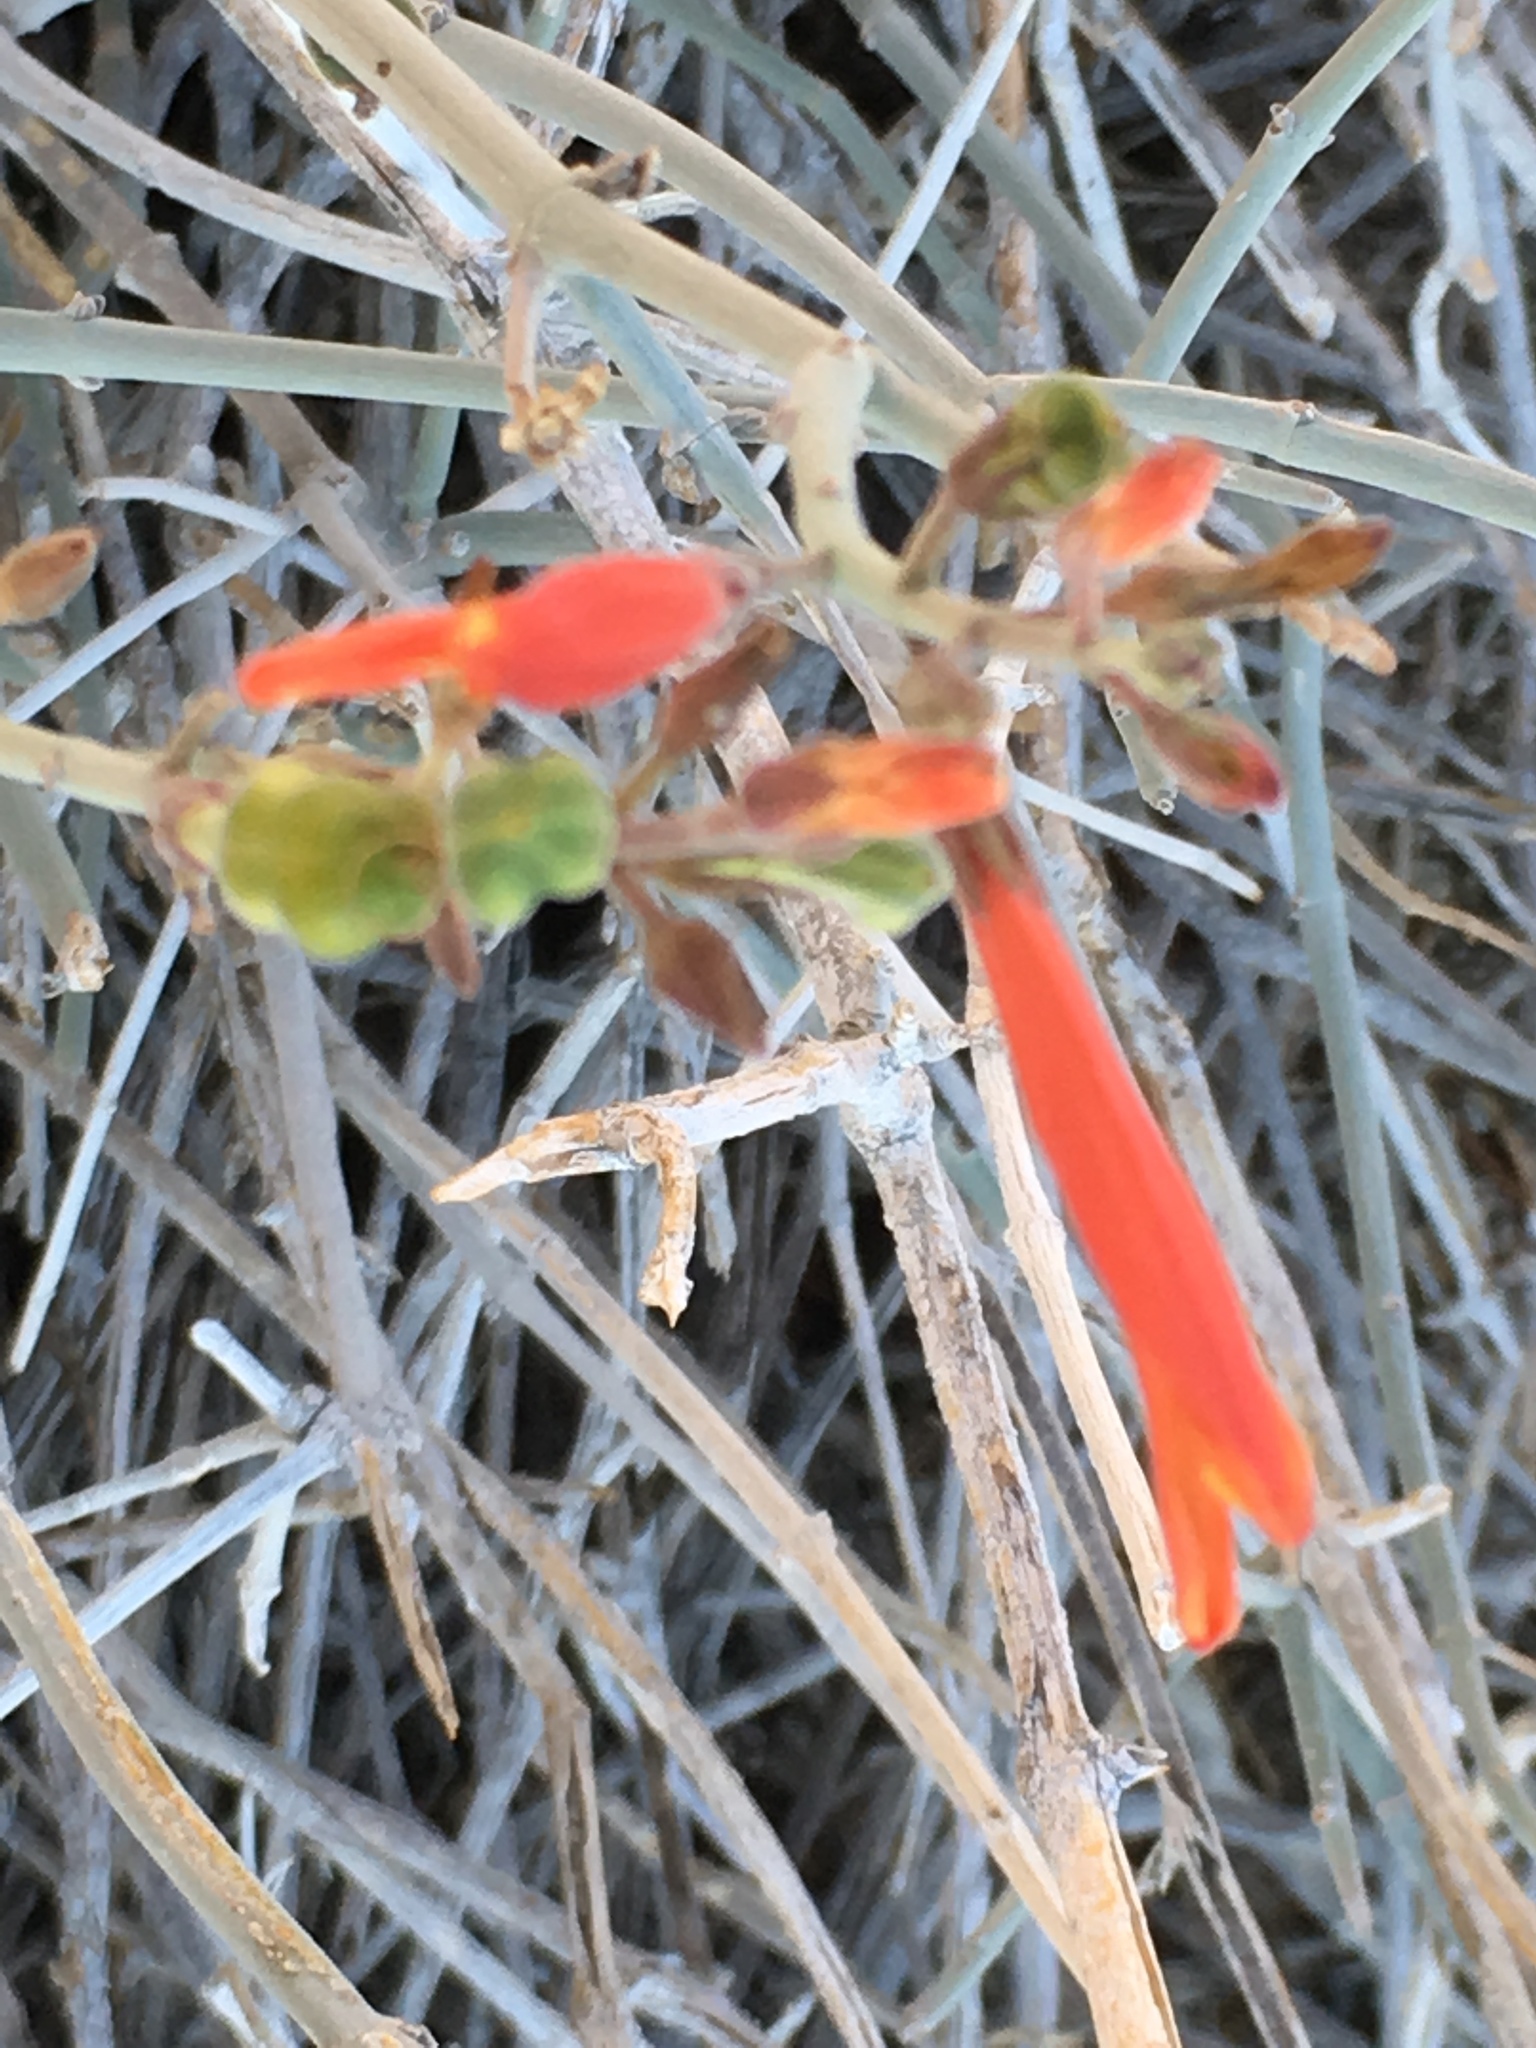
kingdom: Plantae
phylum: Tracheophyta
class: Magnoliopsida
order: Lamiales
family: Acanthaceae
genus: Justicia
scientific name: Justicia californica
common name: Chuparosa-honeysuckle
